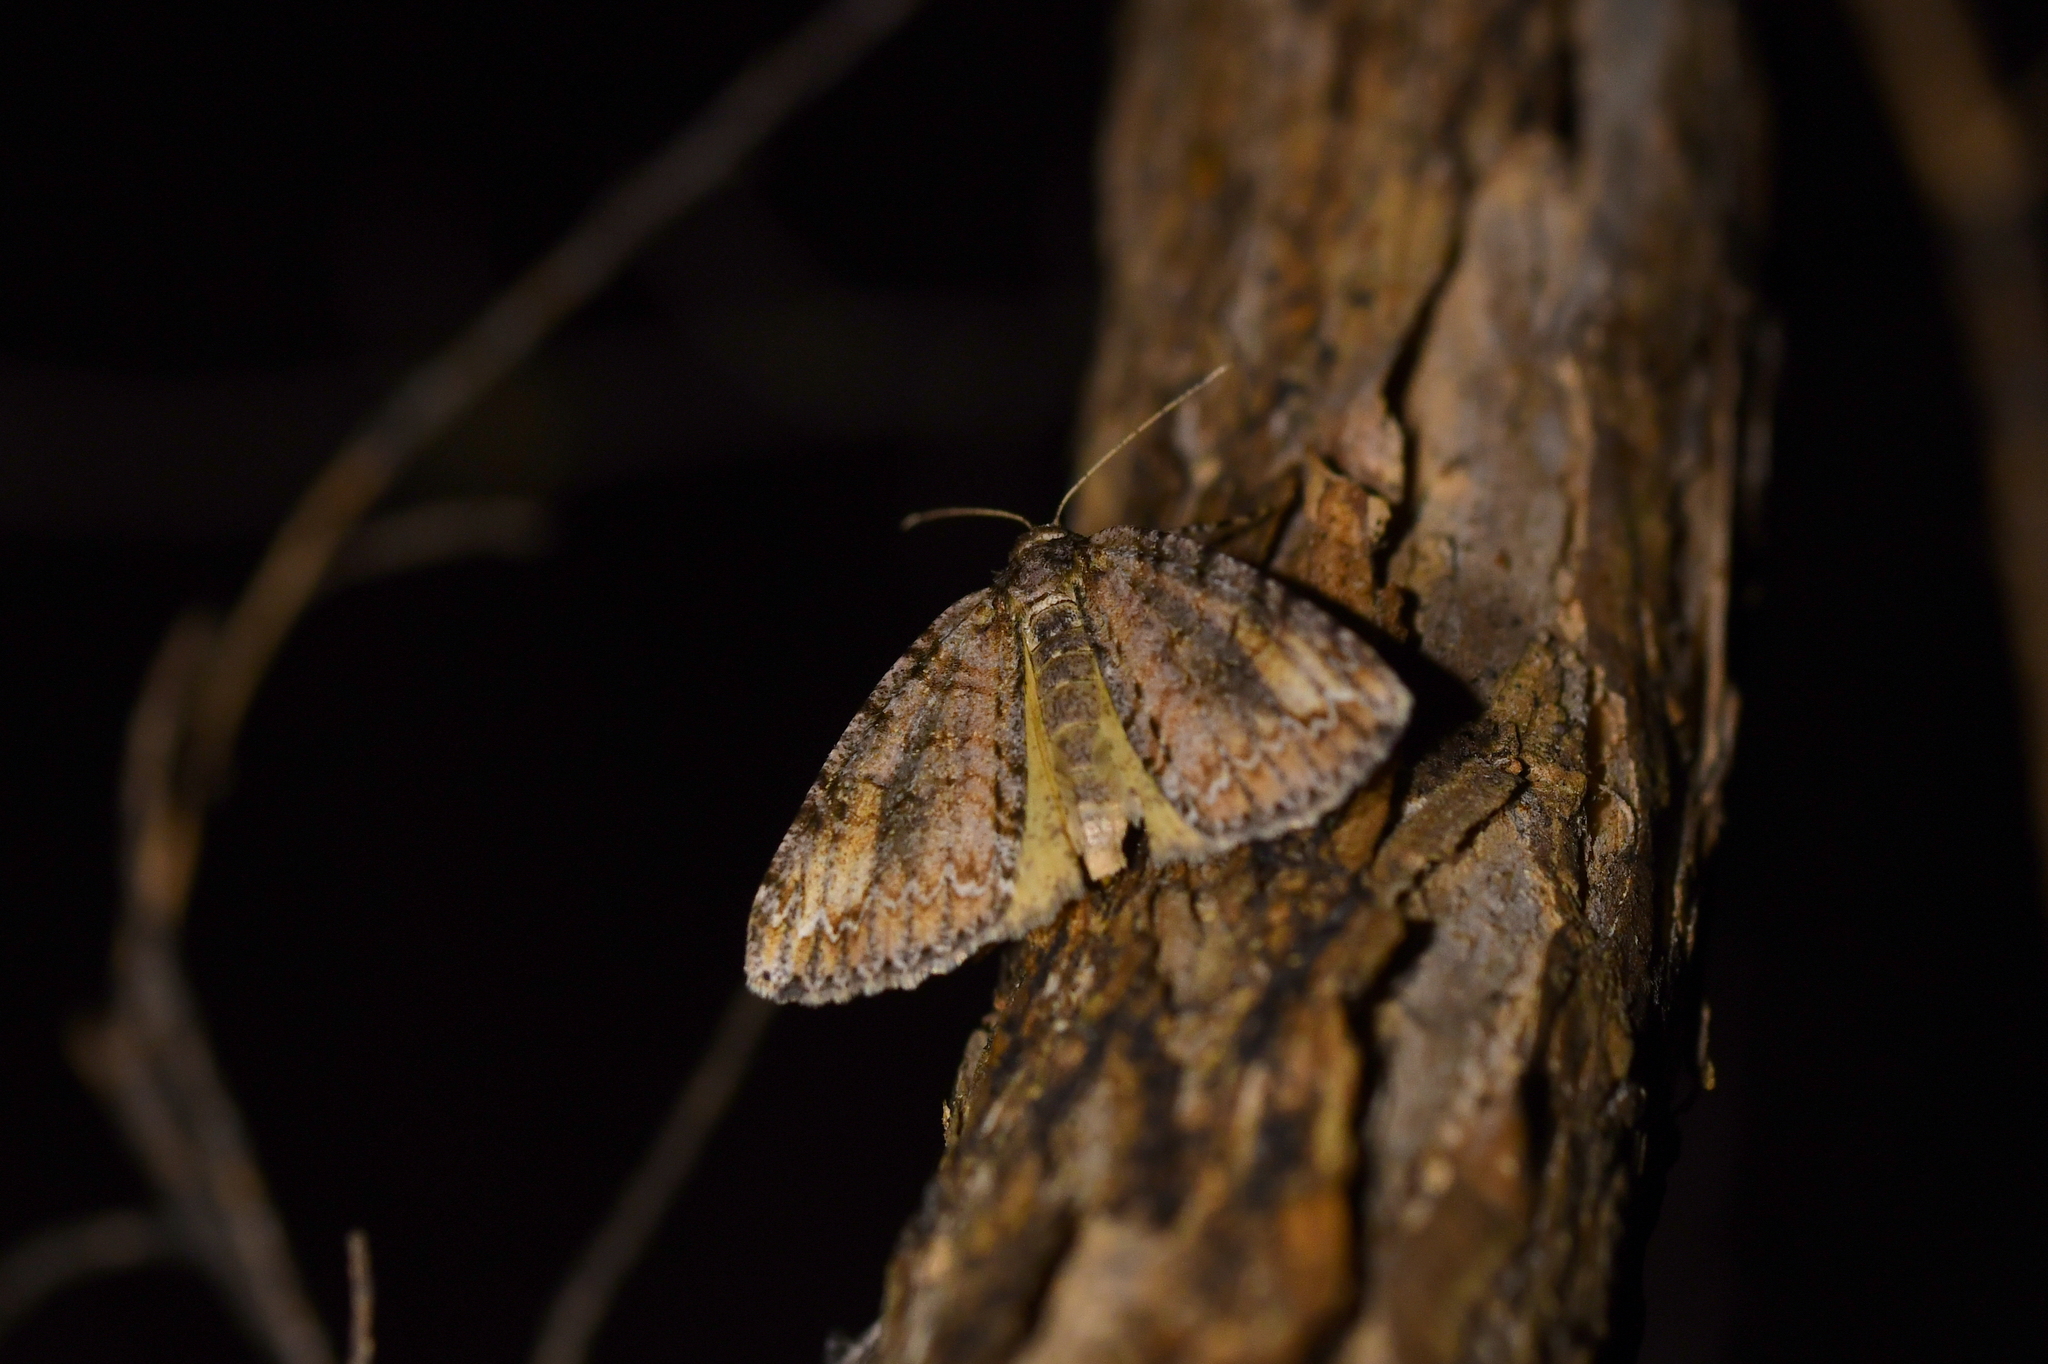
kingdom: Animalia
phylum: Arthropoda
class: Insecta
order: Lepidoptera
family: Geometridae
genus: Pseudocoremia
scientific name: Pseudocoremia suavis
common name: Common forest looper
